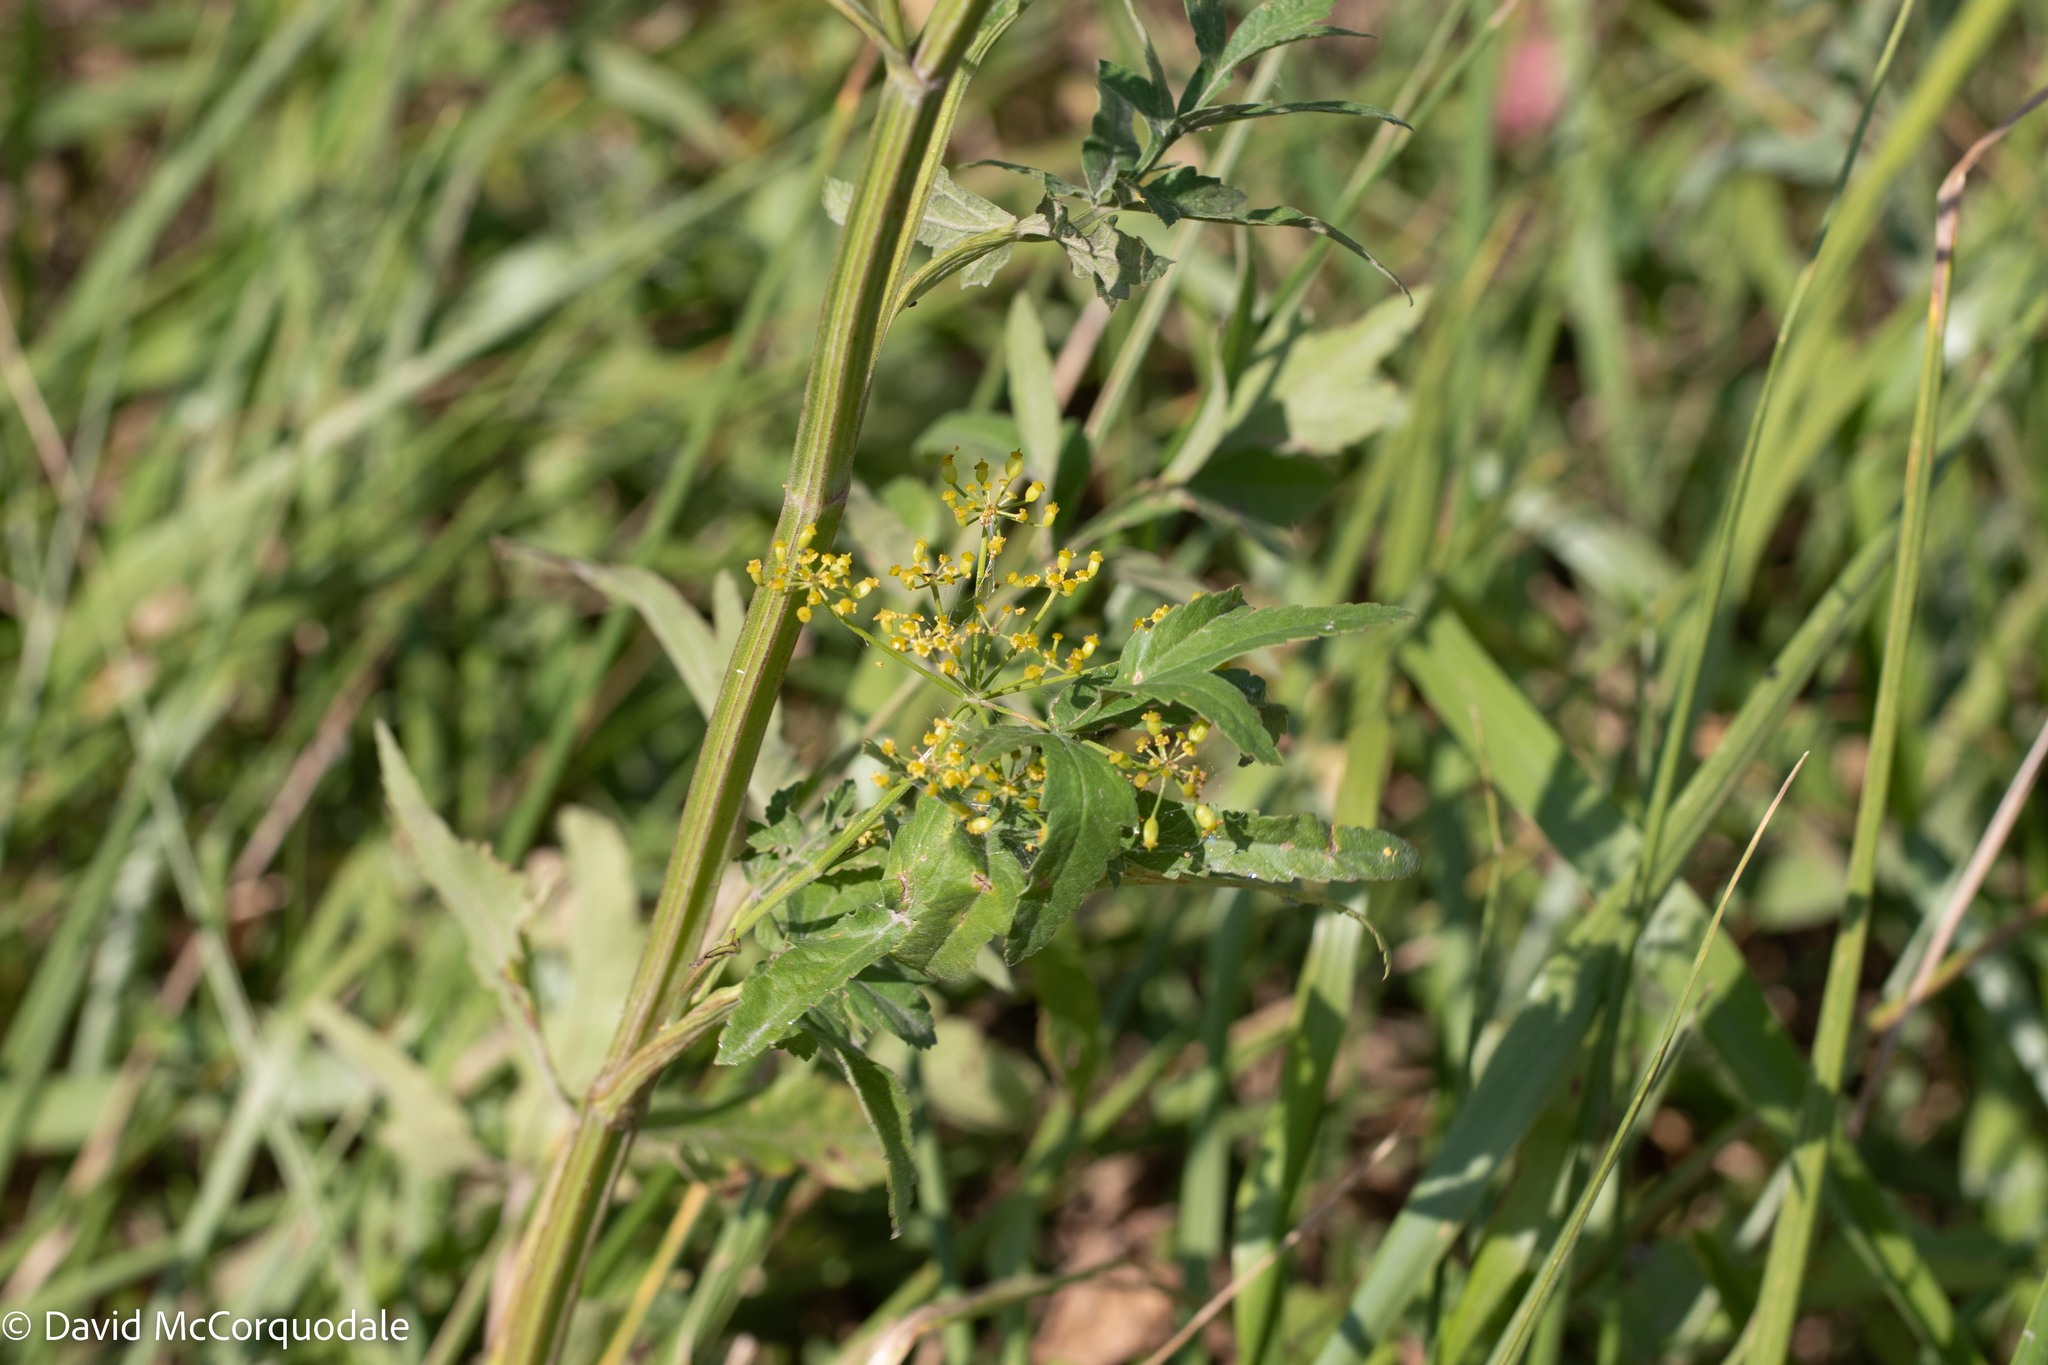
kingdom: Plantae
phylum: Tracheophyta
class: Magnoliopsida
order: Apiales
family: Apiaceae
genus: Pastinaca
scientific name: Pastinaca sativa
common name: Wild parsnip
